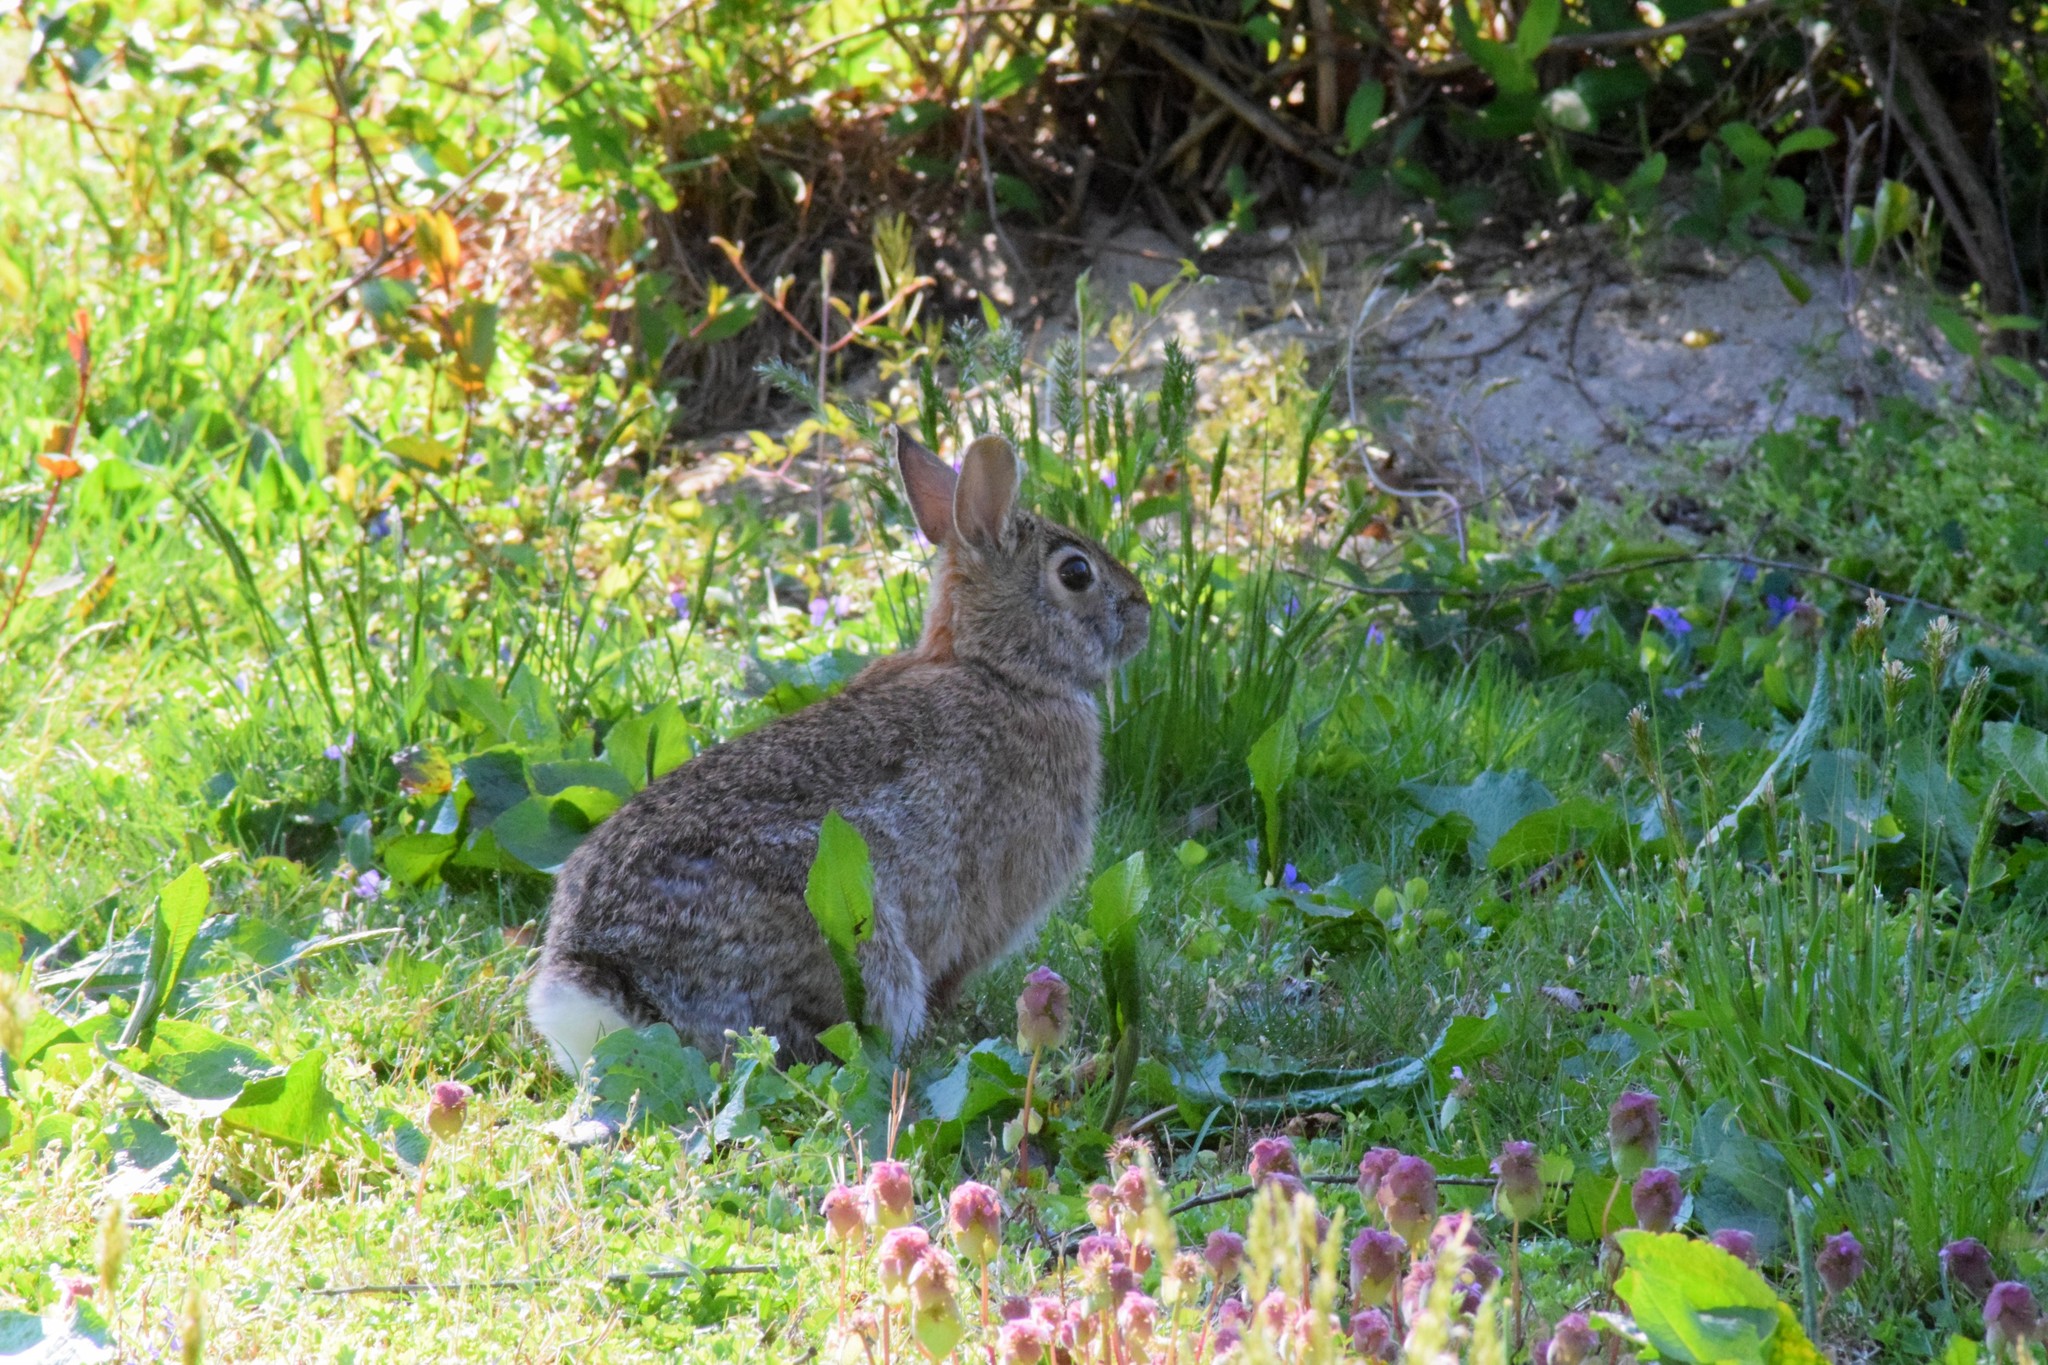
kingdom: Animalia
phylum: Chordata
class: Mammalia
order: Lagomorpha
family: Leporidae
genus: Sylvilagus
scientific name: Sylvilagus floridanus
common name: Eastern cottontail
